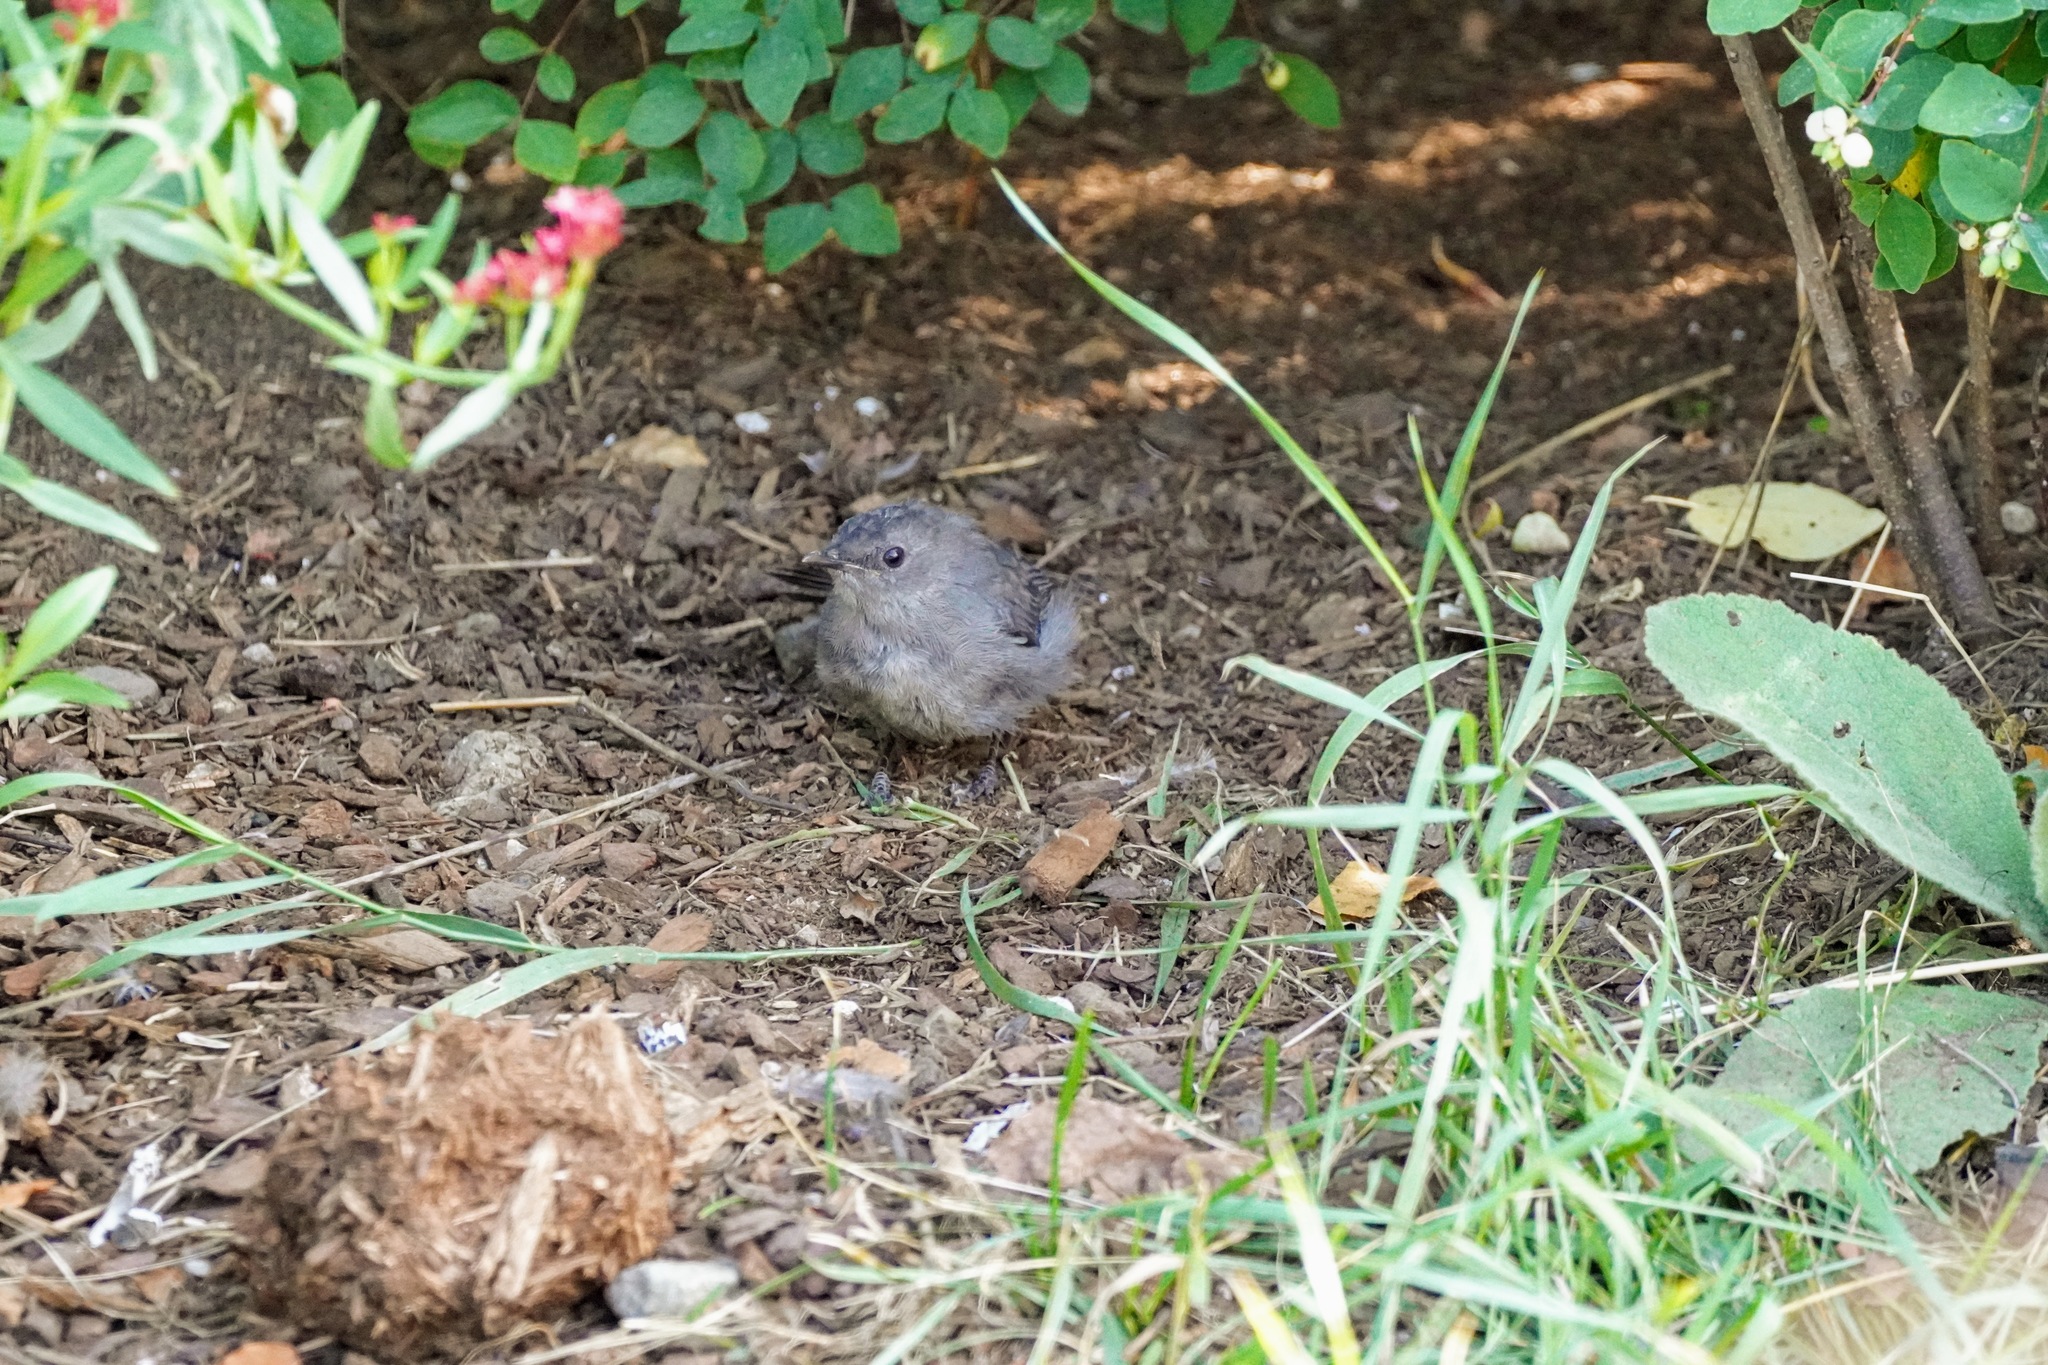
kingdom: Animalia
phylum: Chordata
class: Aves
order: Passeriformes
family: Mimidae
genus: Dumetella
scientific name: Dumetella carolinensis
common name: Gray catbird
